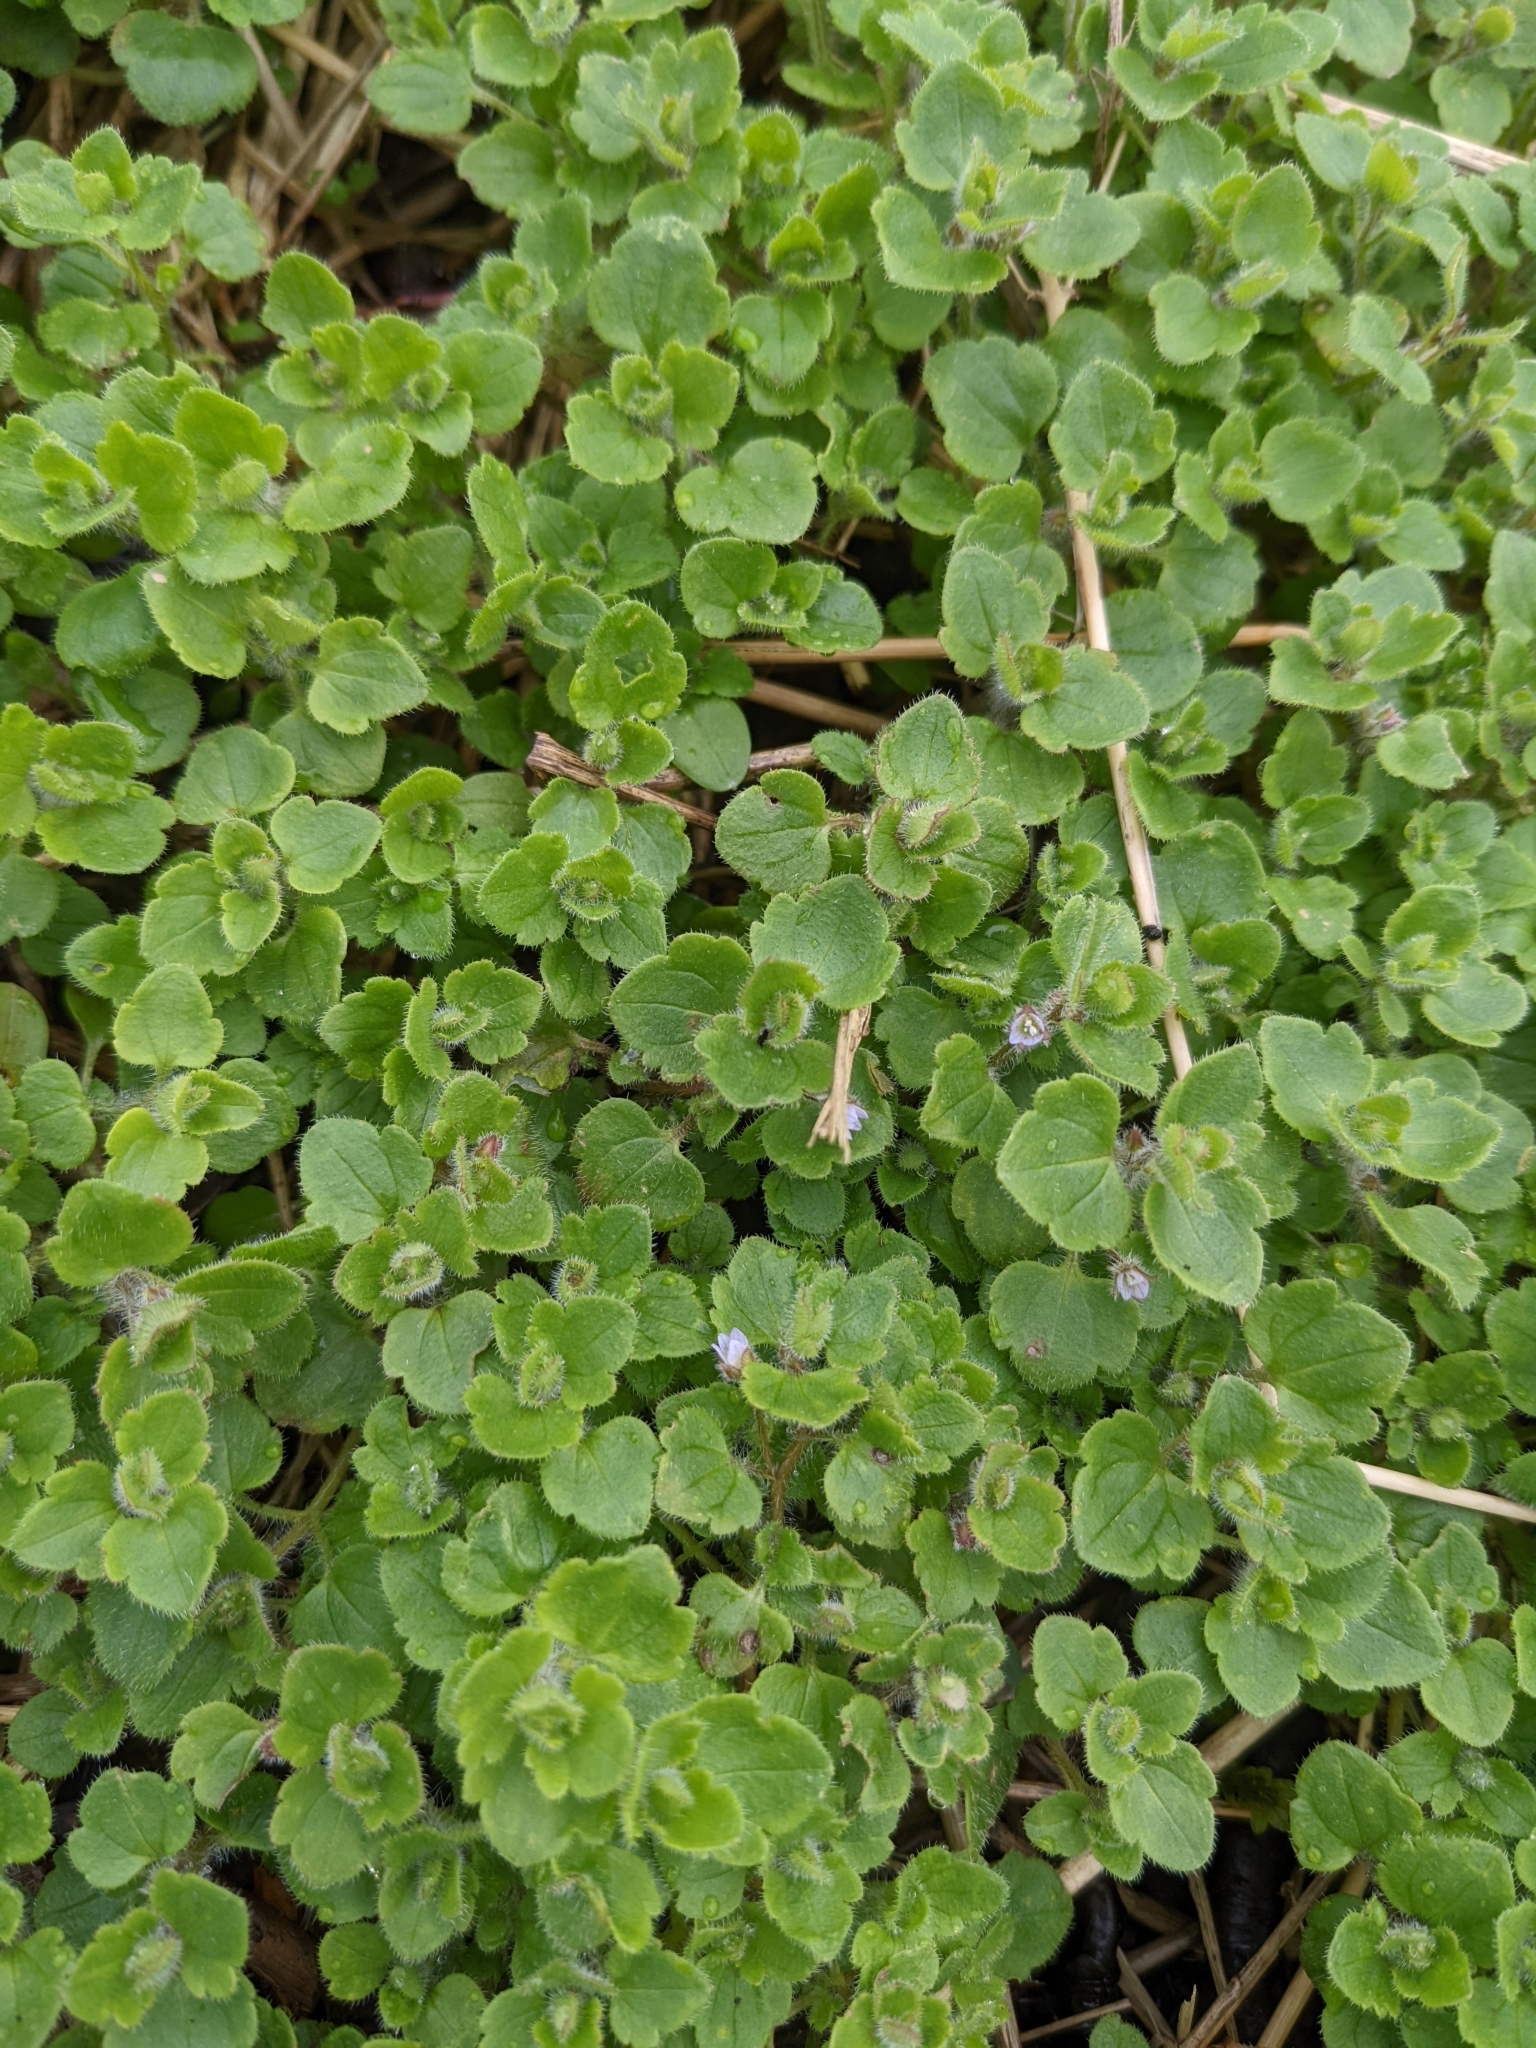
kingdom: Plantae
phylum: Tracheophyta
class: Magnoliopsida
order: Lamiales
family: Plantaginaceae
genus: Veronica
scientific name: Veronica sublobata
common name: False ivy-leaved speedwell
